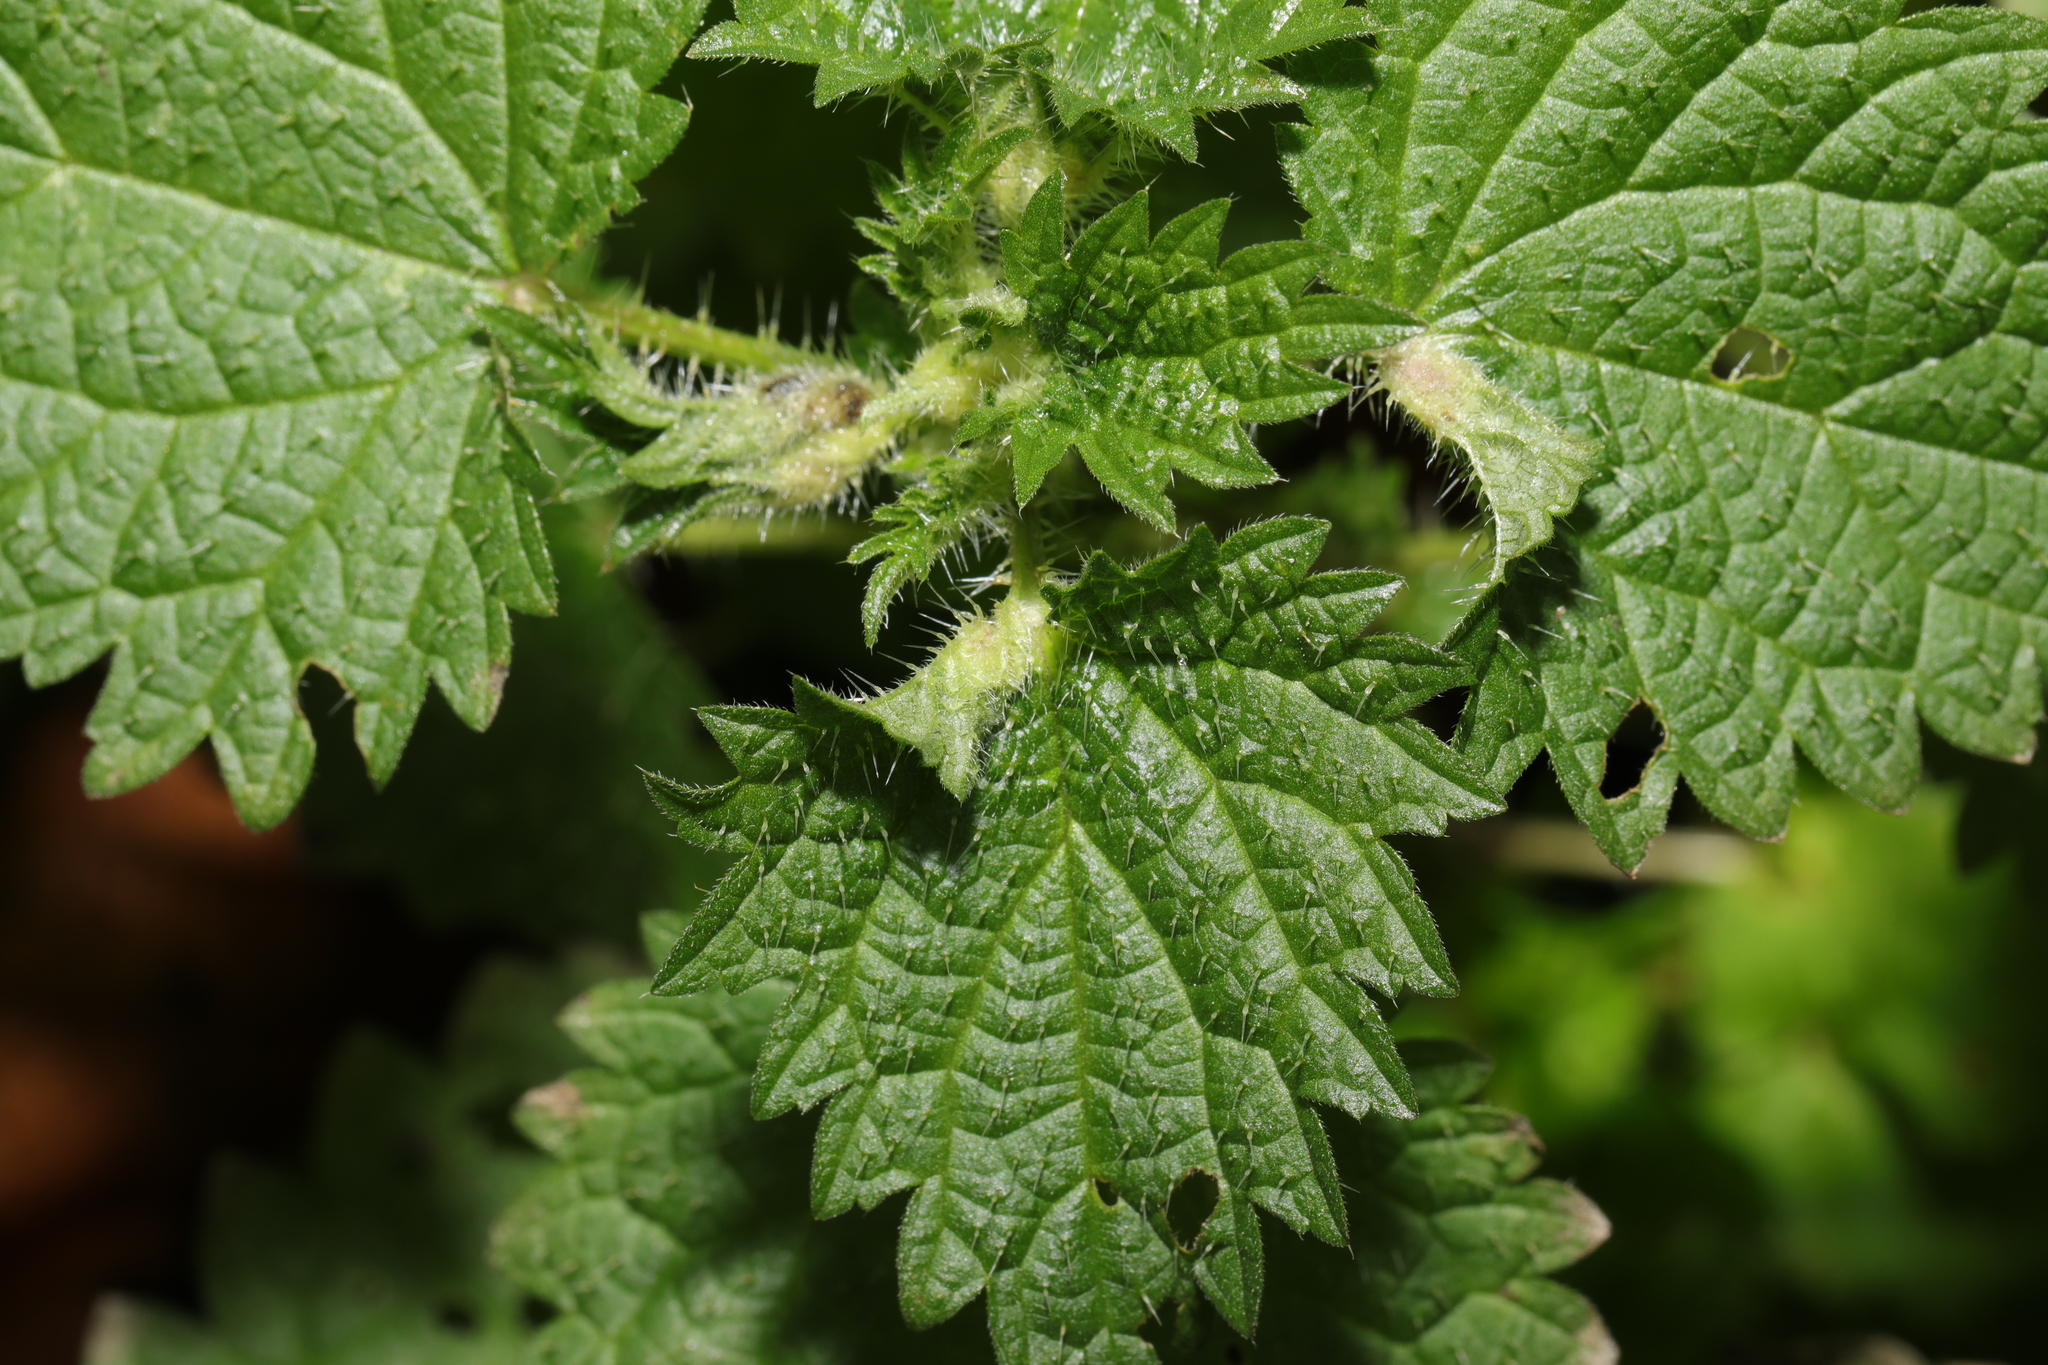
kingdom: Animalia
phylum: Arthropoda
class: Insecta
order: Diptera
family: Cecidomyiidae
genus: Dasineura
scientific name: Dasineura urticae
